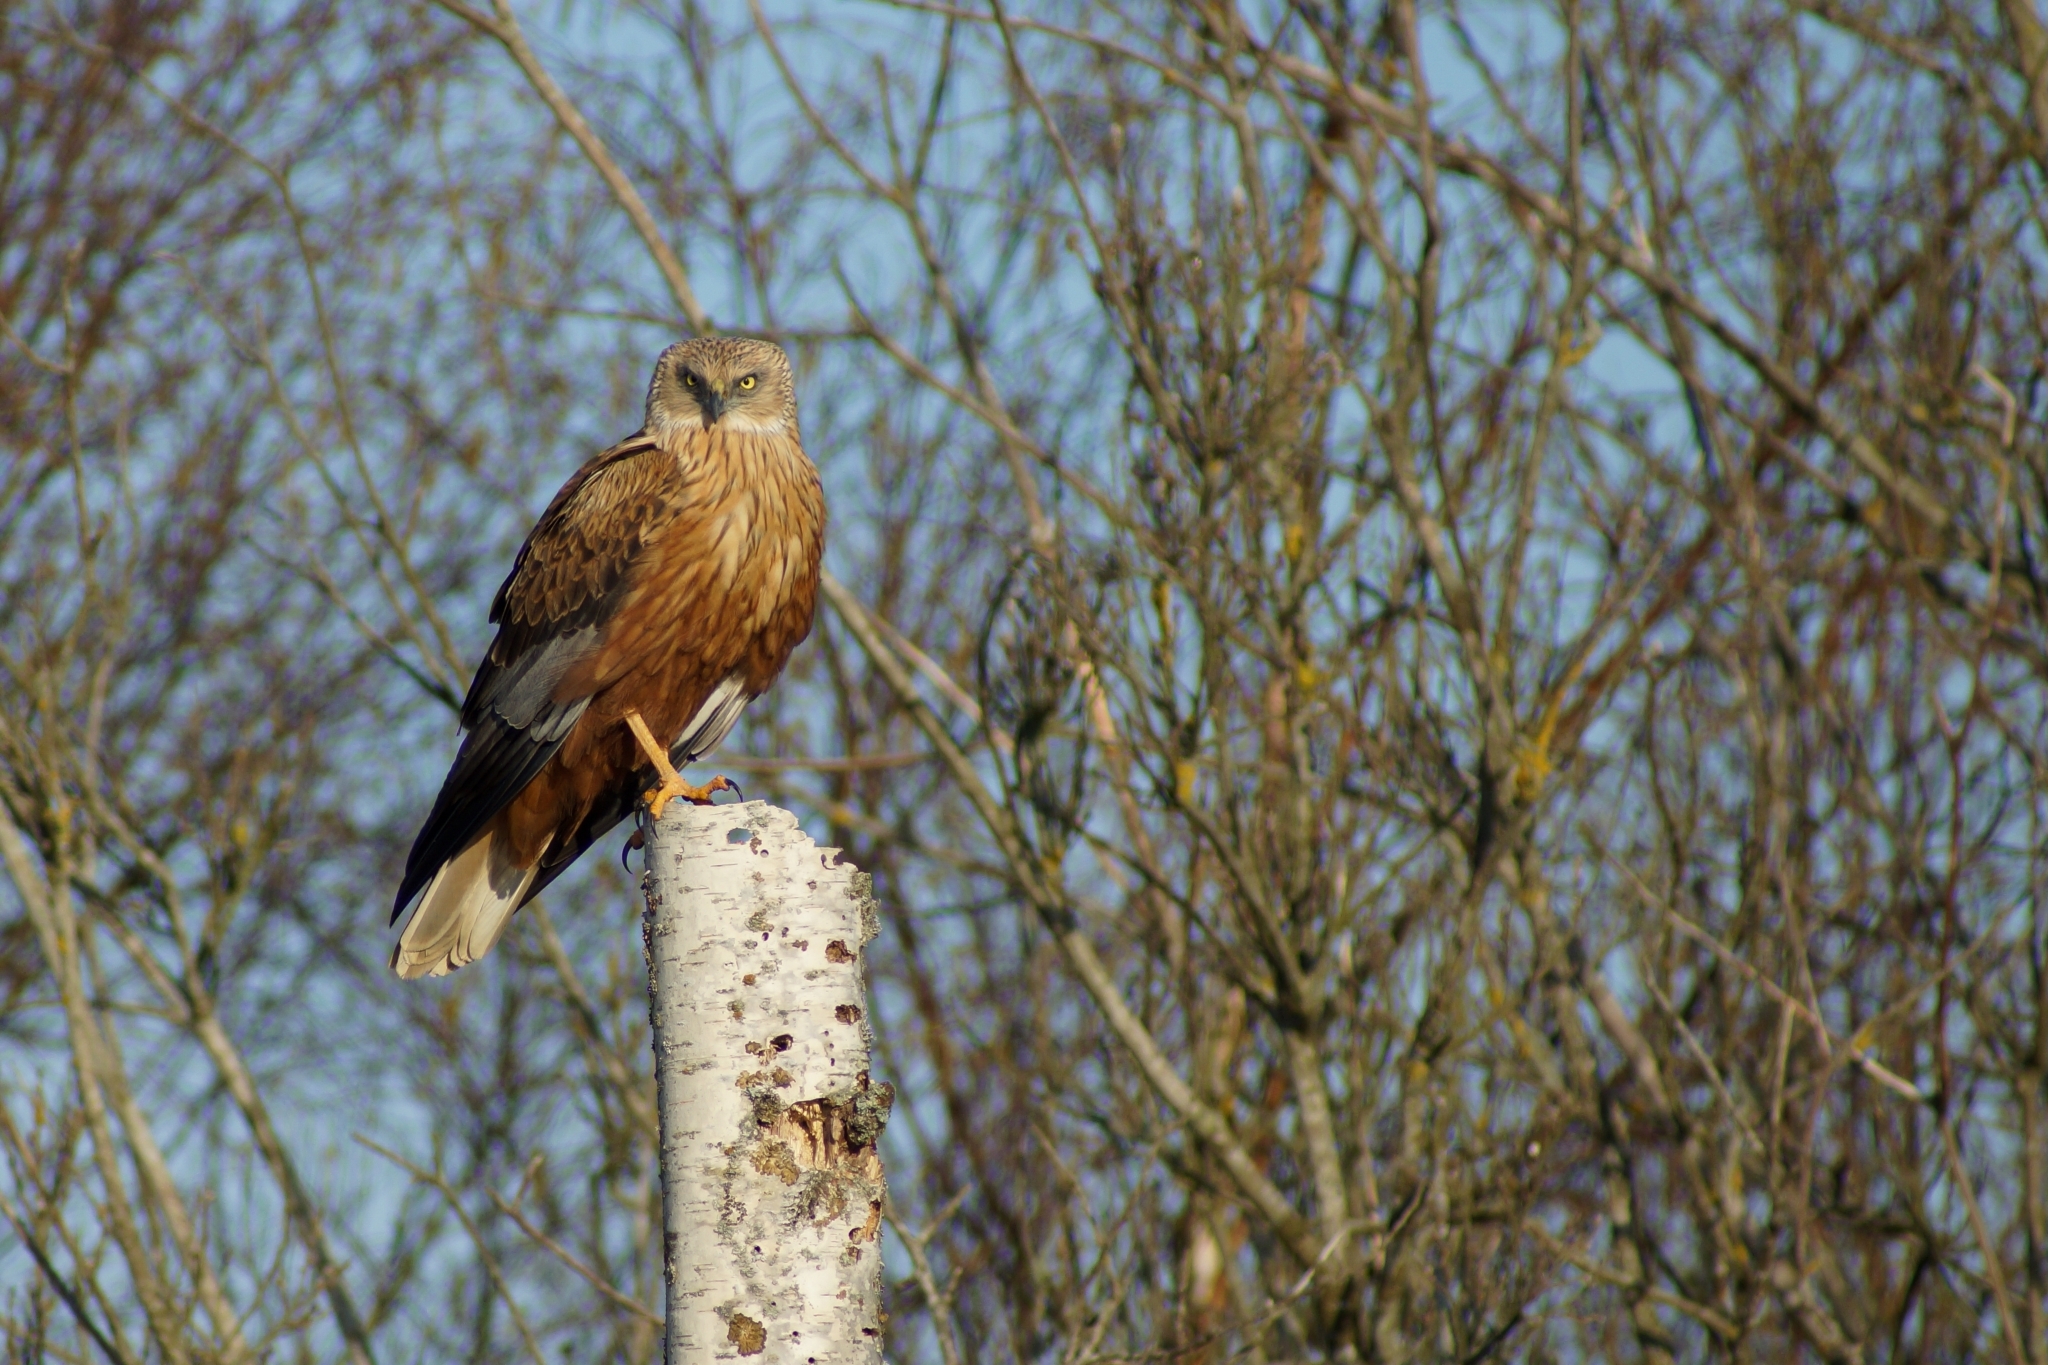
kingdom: Animalia
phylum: Chordata
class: Aves
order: Accipitriformes
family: Accipitridae
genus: Circus
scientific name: Circus aeruginosus
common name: Western marsh harrier
